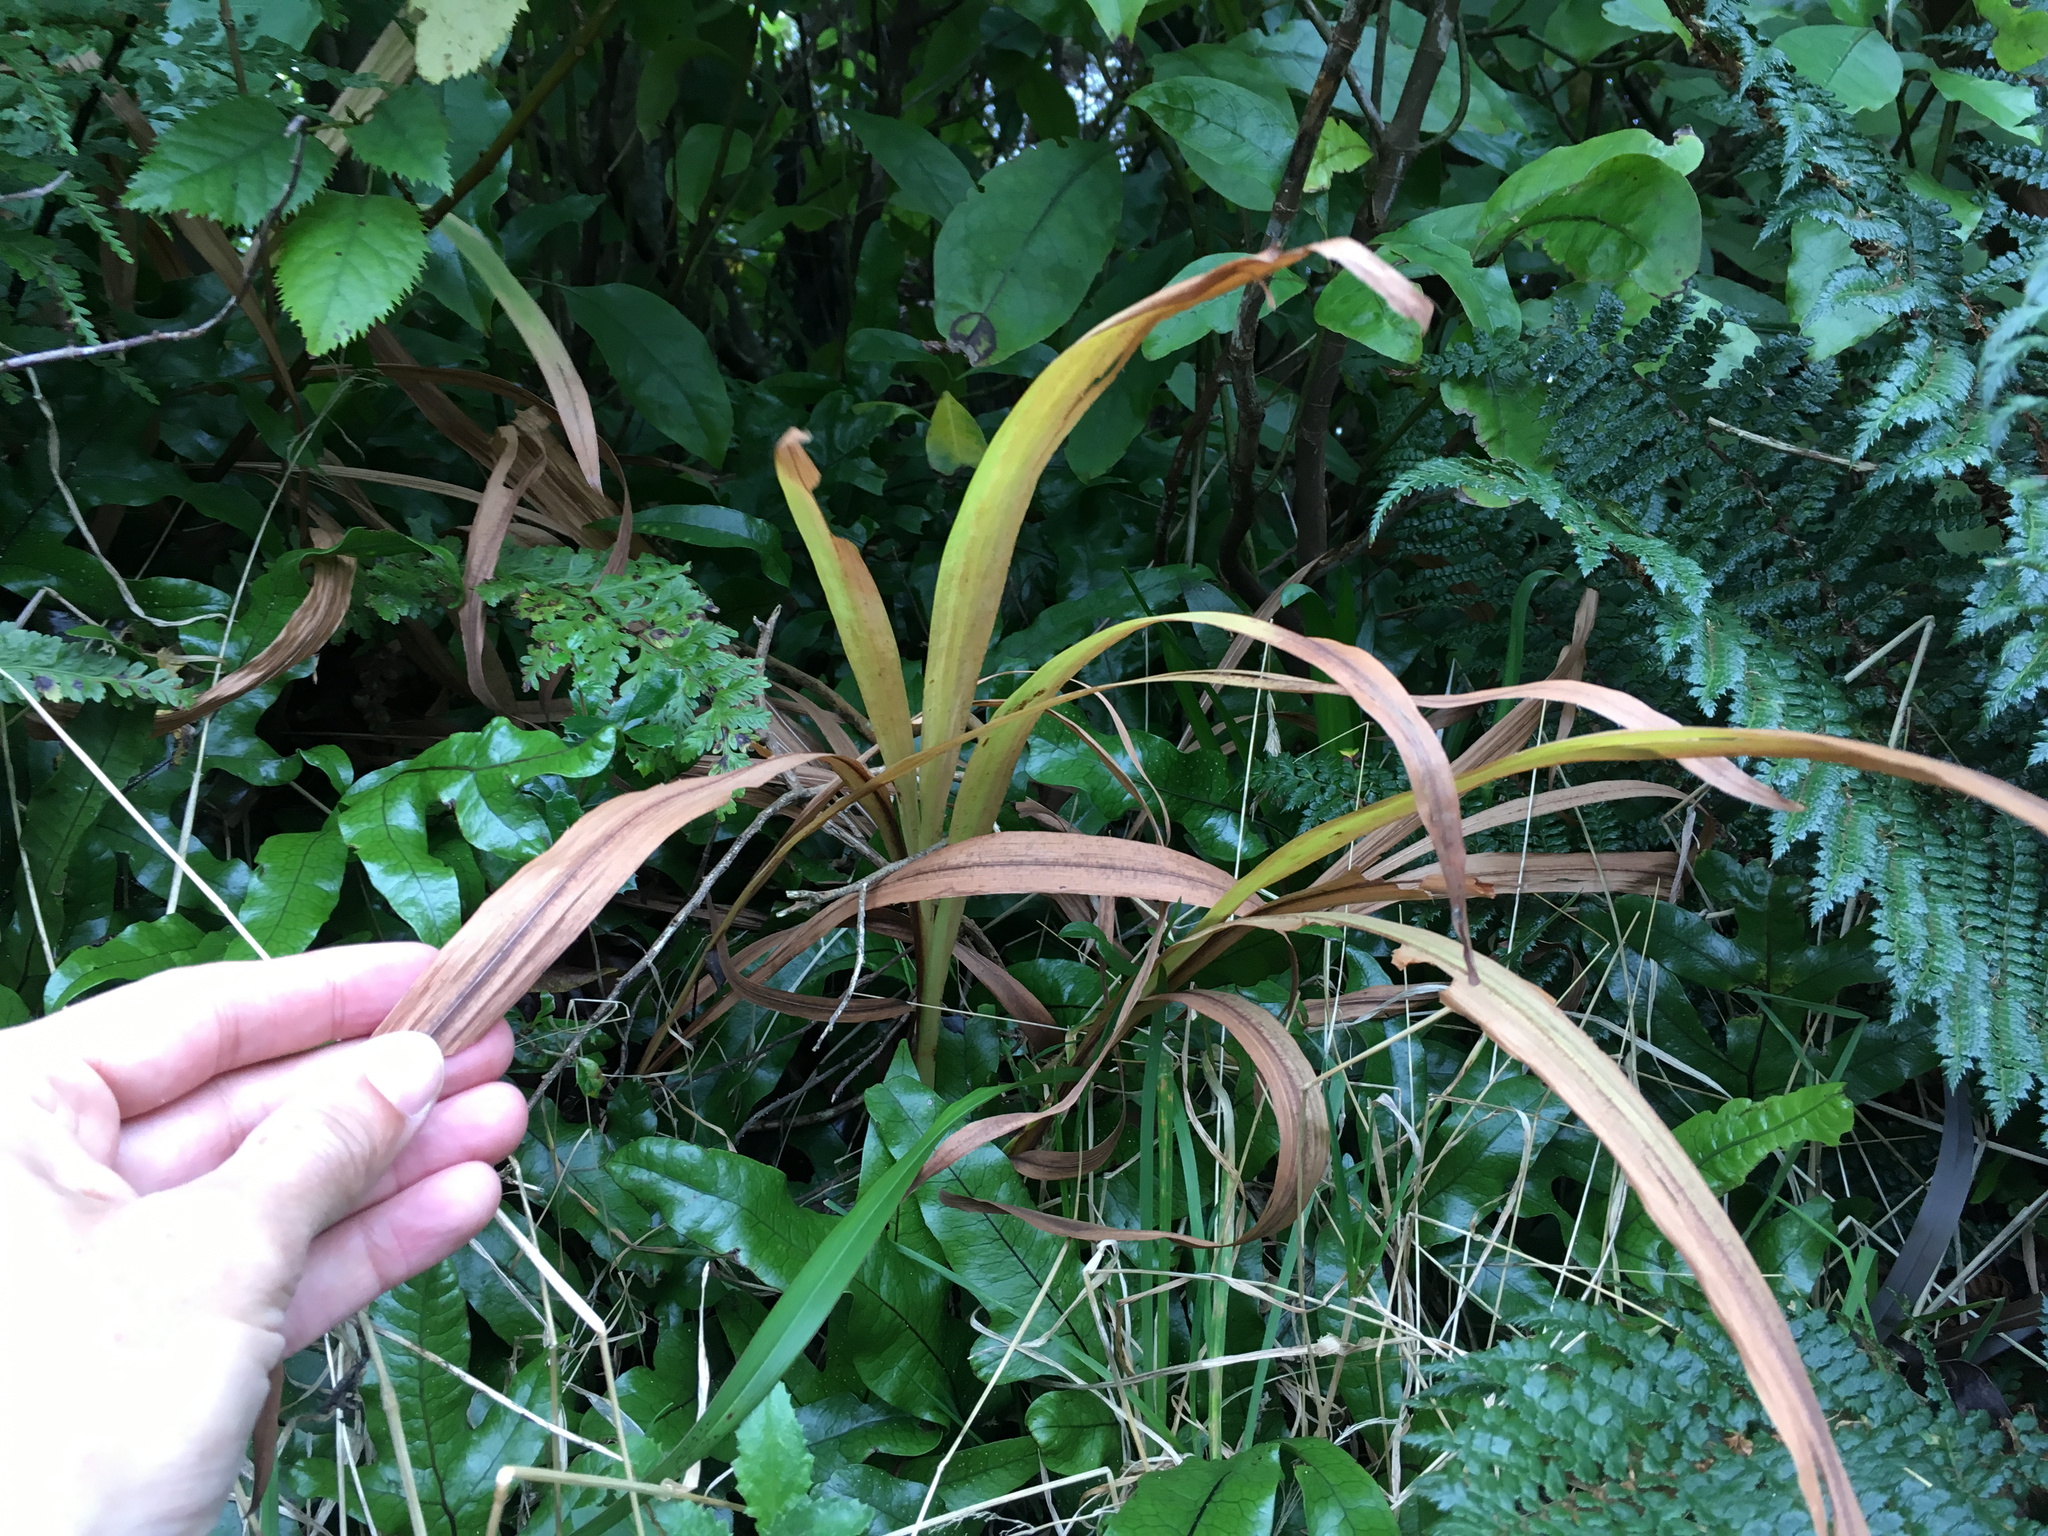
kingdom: Plantae
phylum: Tracheophyta
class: Liliopsida
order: Asparagales
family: Iridaceae
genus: Crocosmia
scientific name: Crocosmia crocosmiiflora
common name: Montbretia
